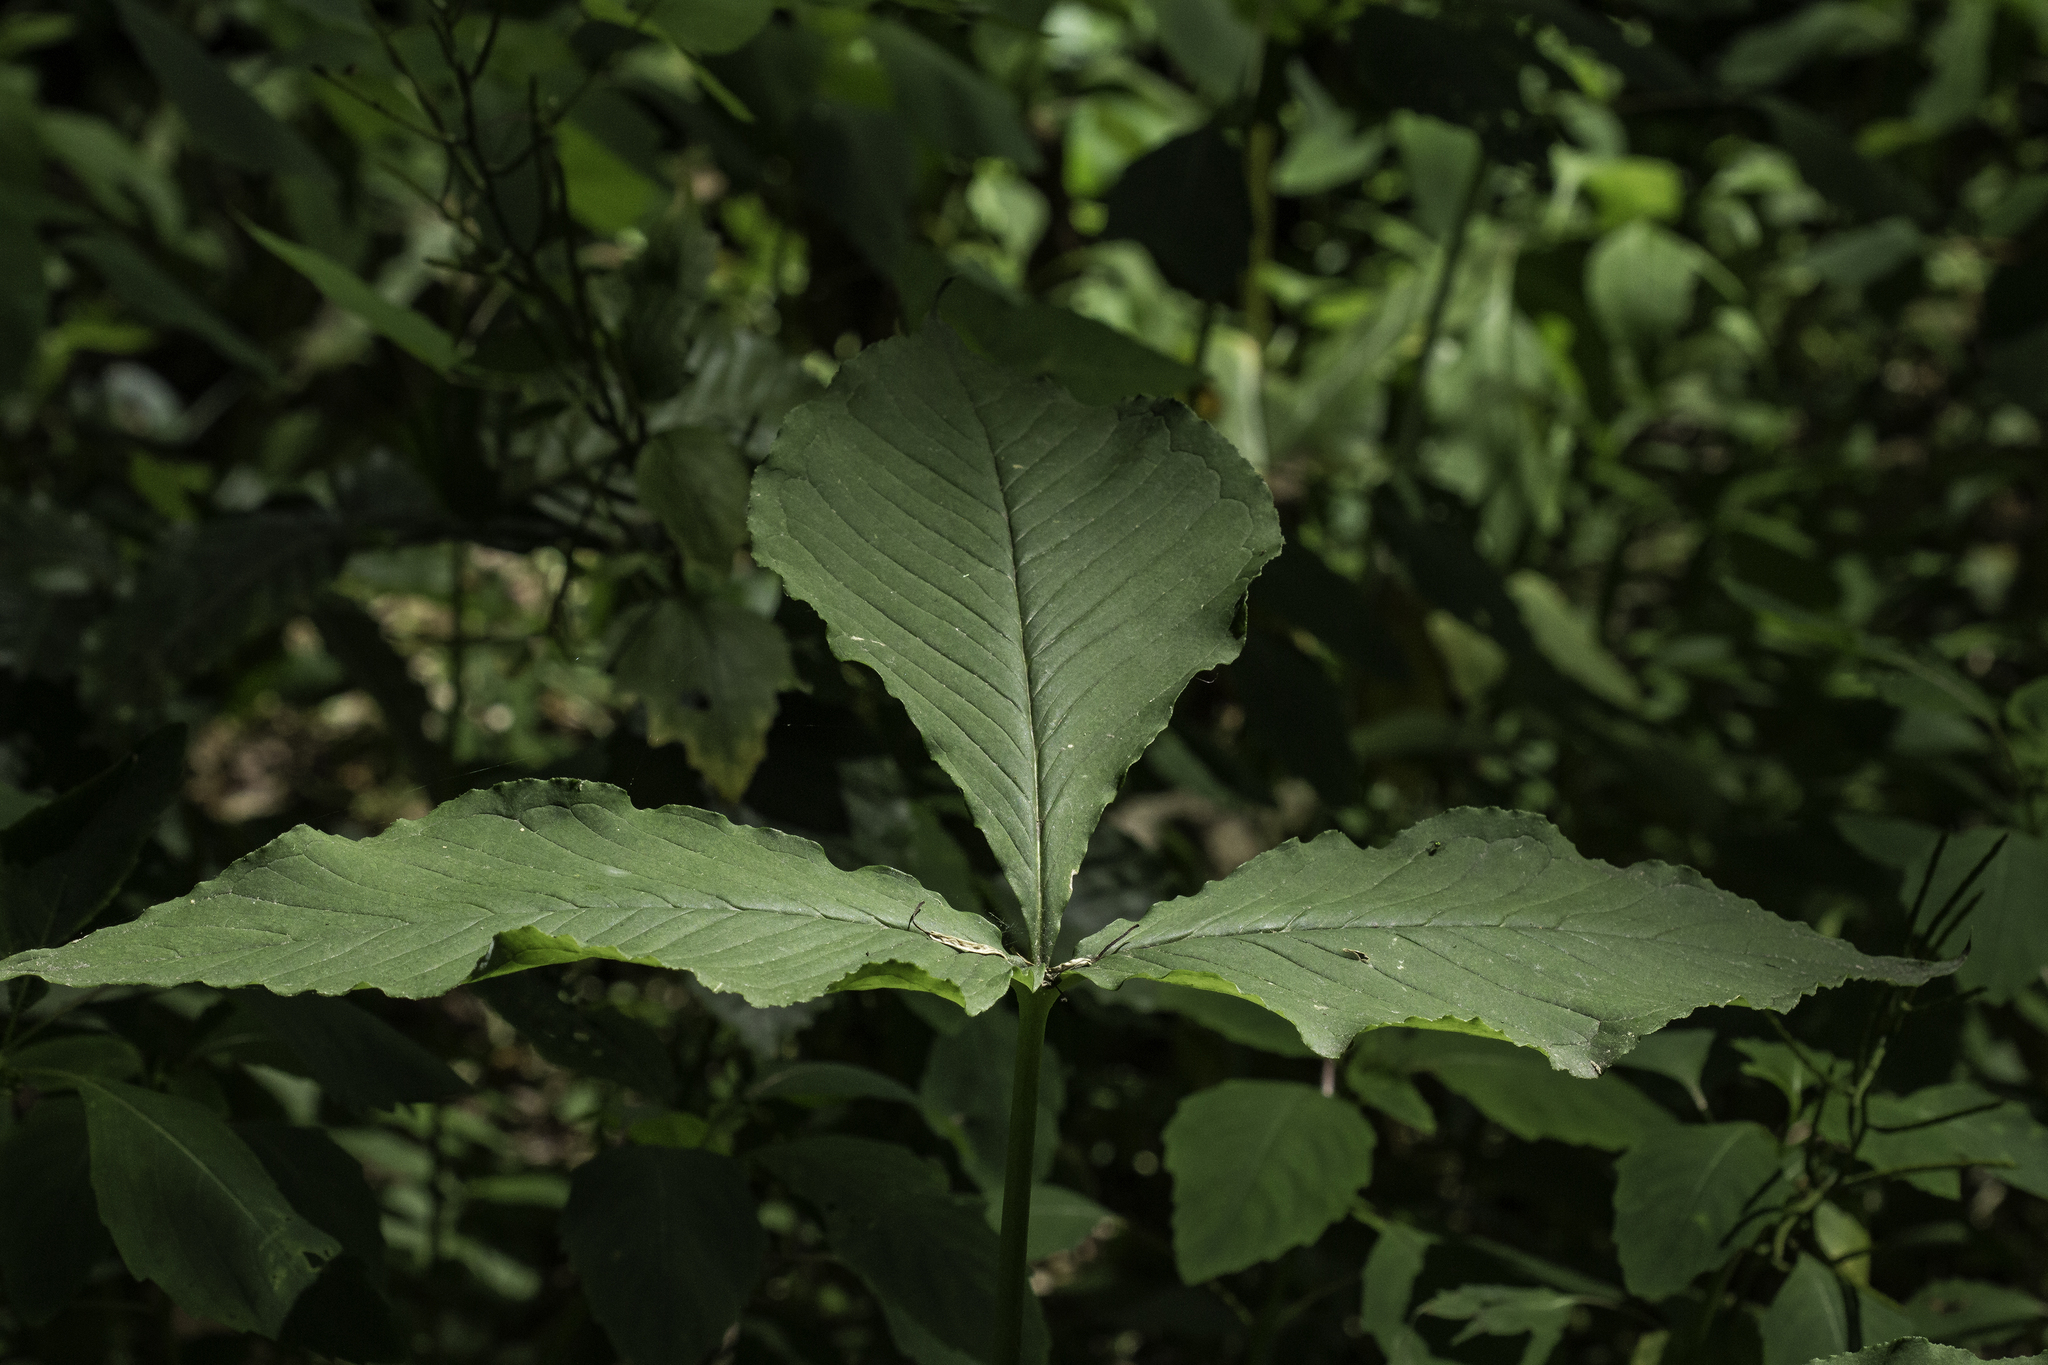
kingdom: Plantae
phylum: Tracheophyta
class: Liliopsida
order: Alismatales
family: Araceae
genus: Arisaema
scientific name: Arisaema triphyllum
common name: Jack-in-the-pulpit
